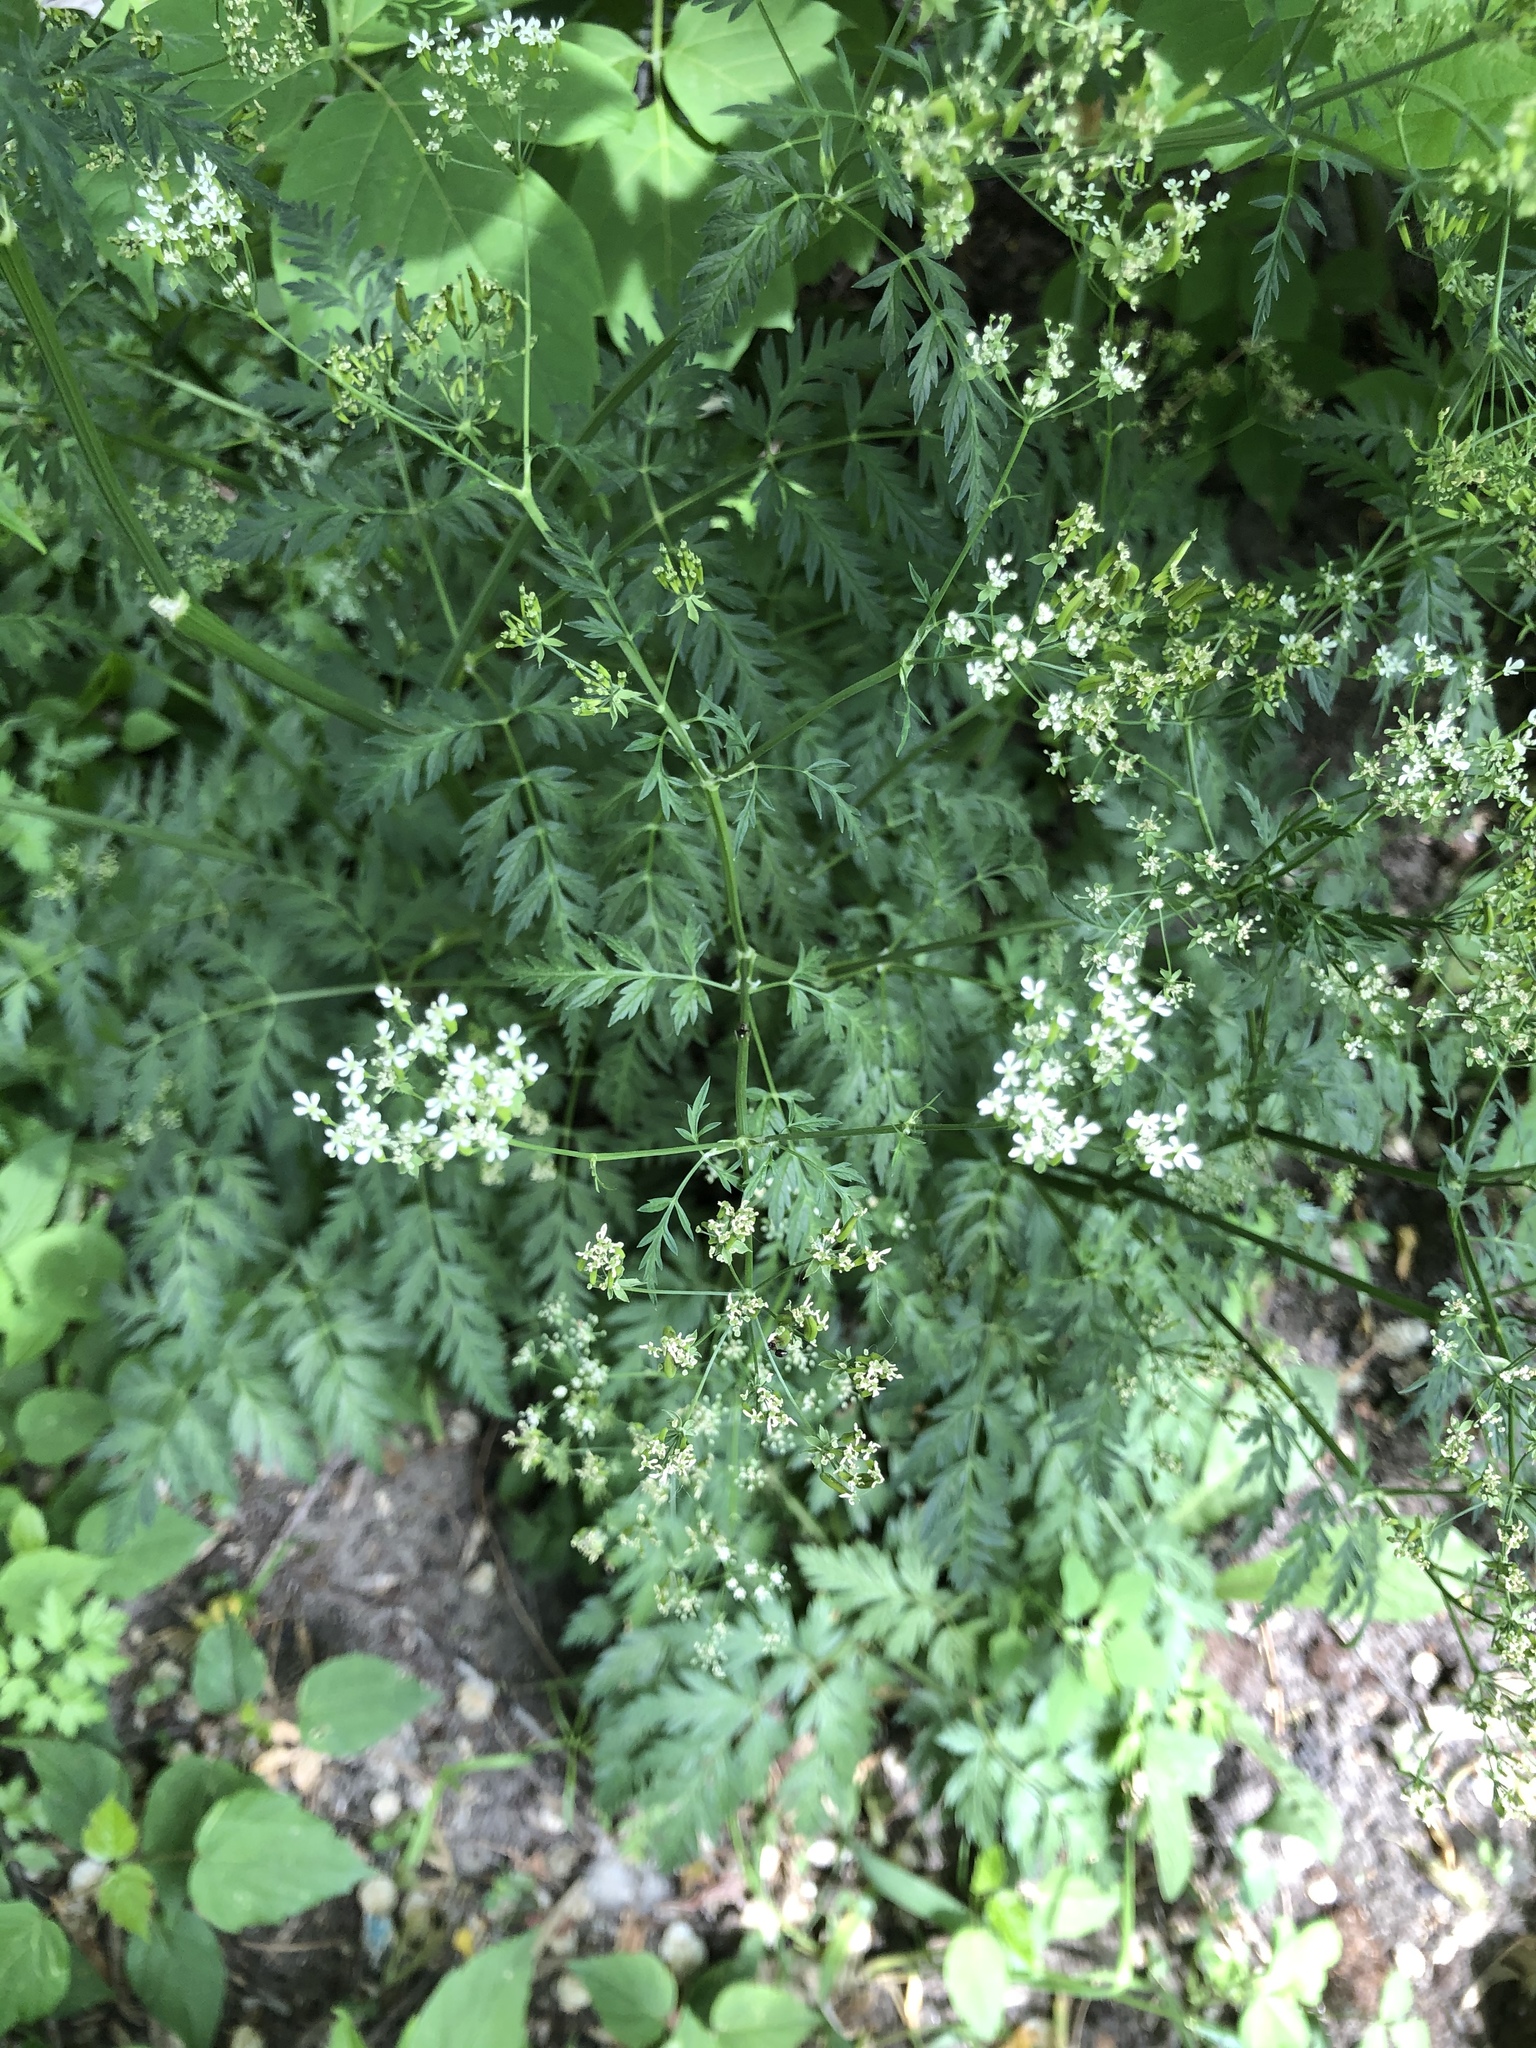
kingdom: Plantae
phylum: Tracheophyta
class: Magnoliopsida
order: Apiales
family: Apiaceae
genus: Anthriscus
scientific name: Anthriscus sylvestris
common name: Cow parsley
